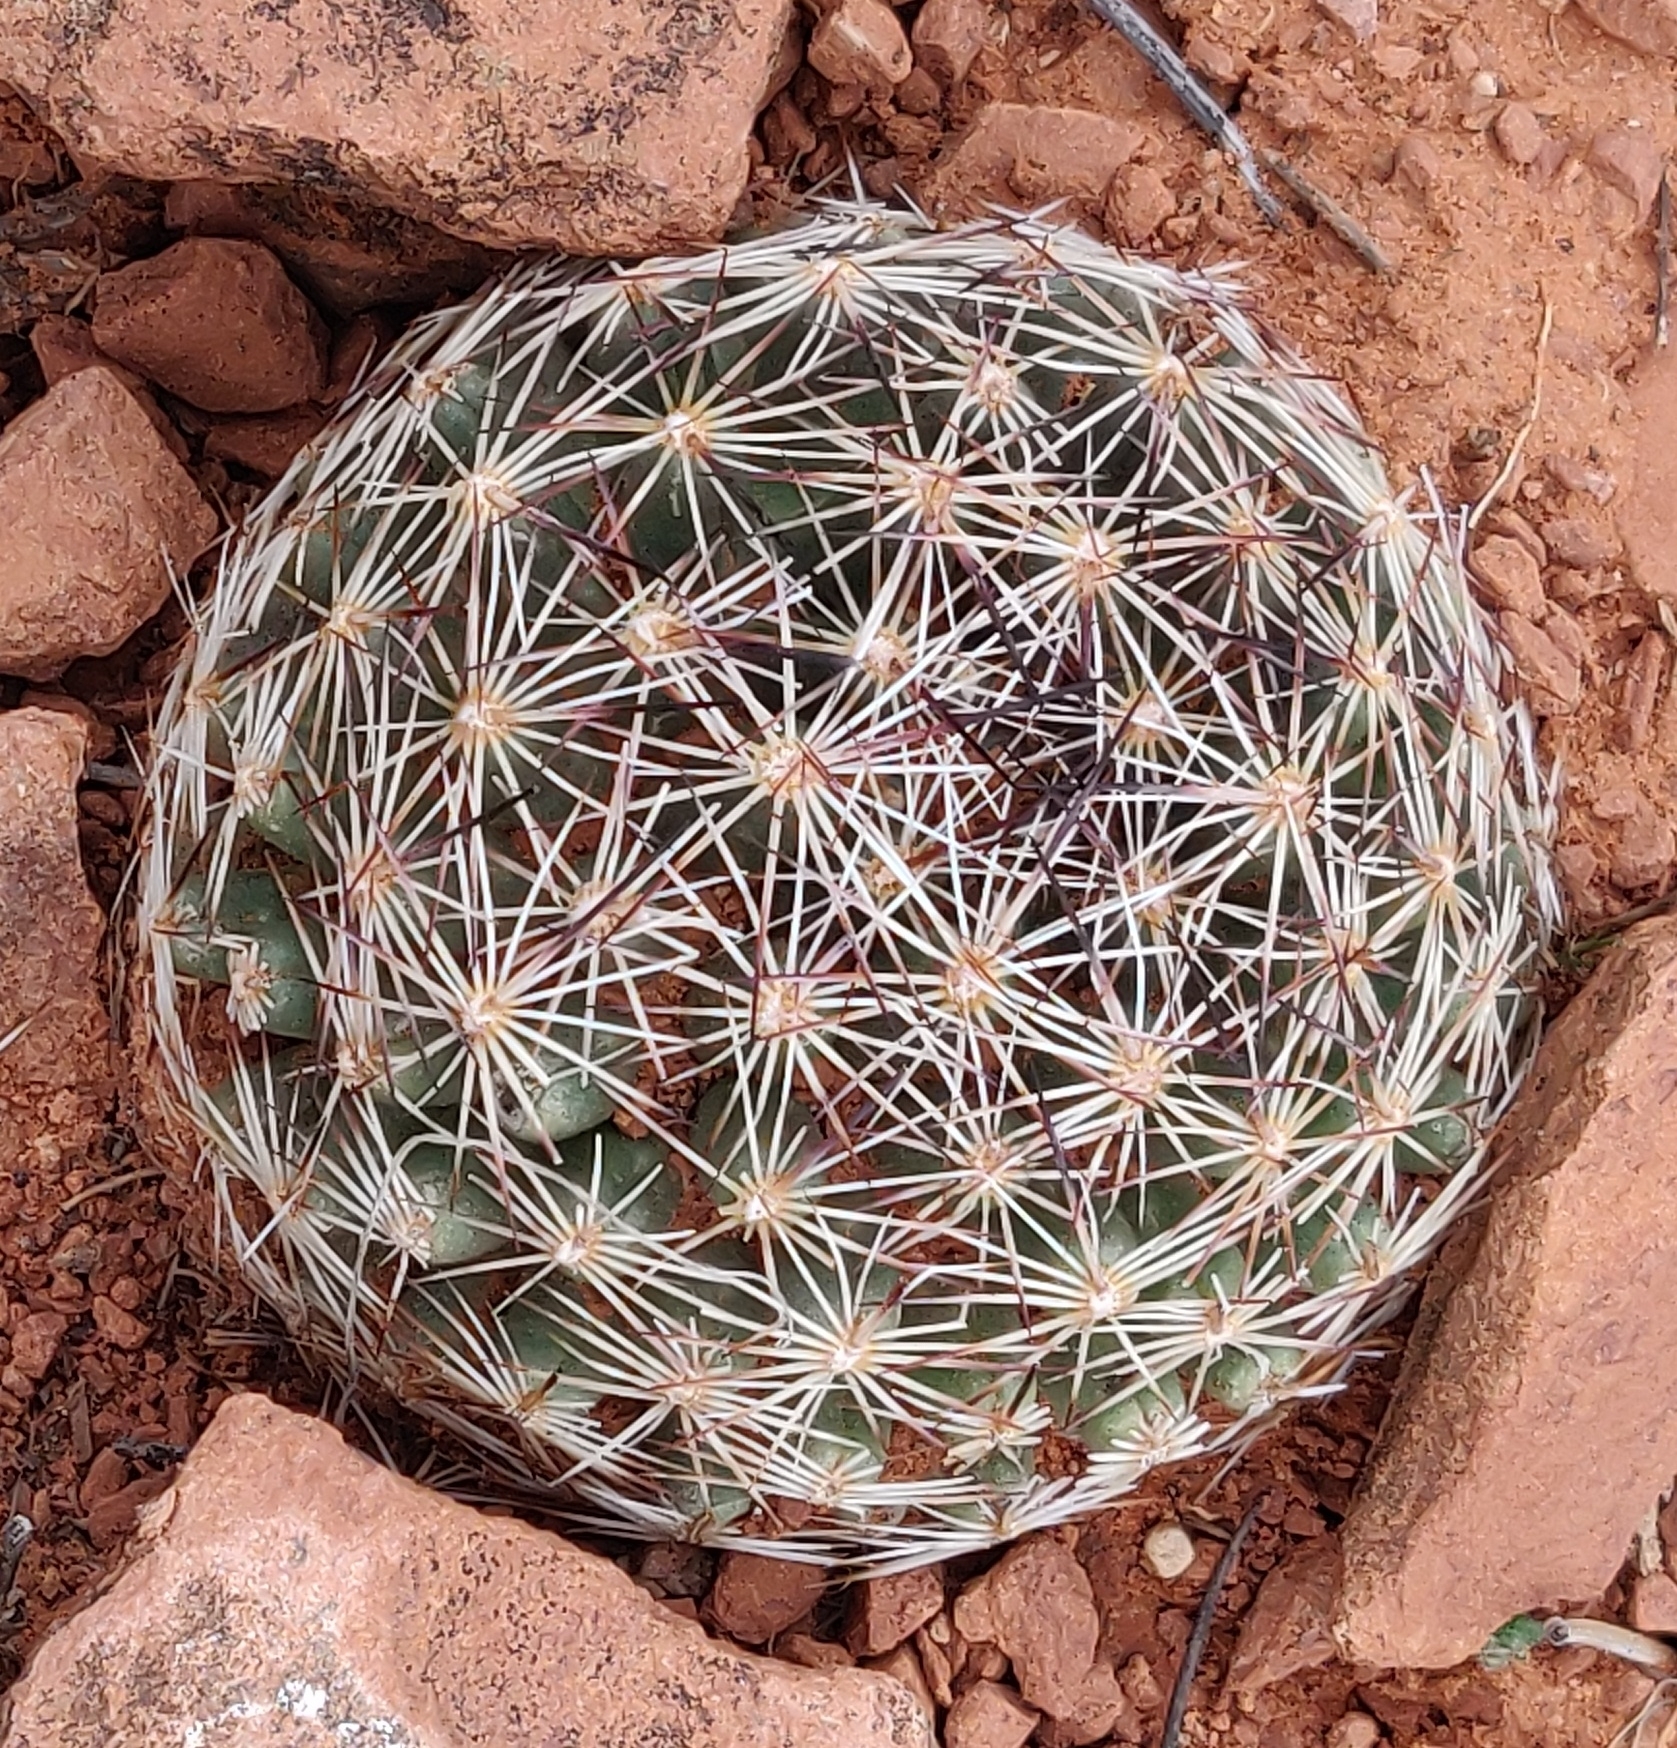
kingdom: Plantae
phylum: Tracheophyta
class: Magnoliopsida
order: Caryophyllales
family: Cactaceae
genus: Pelecyphora
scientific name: Pelecyphora vivipara
